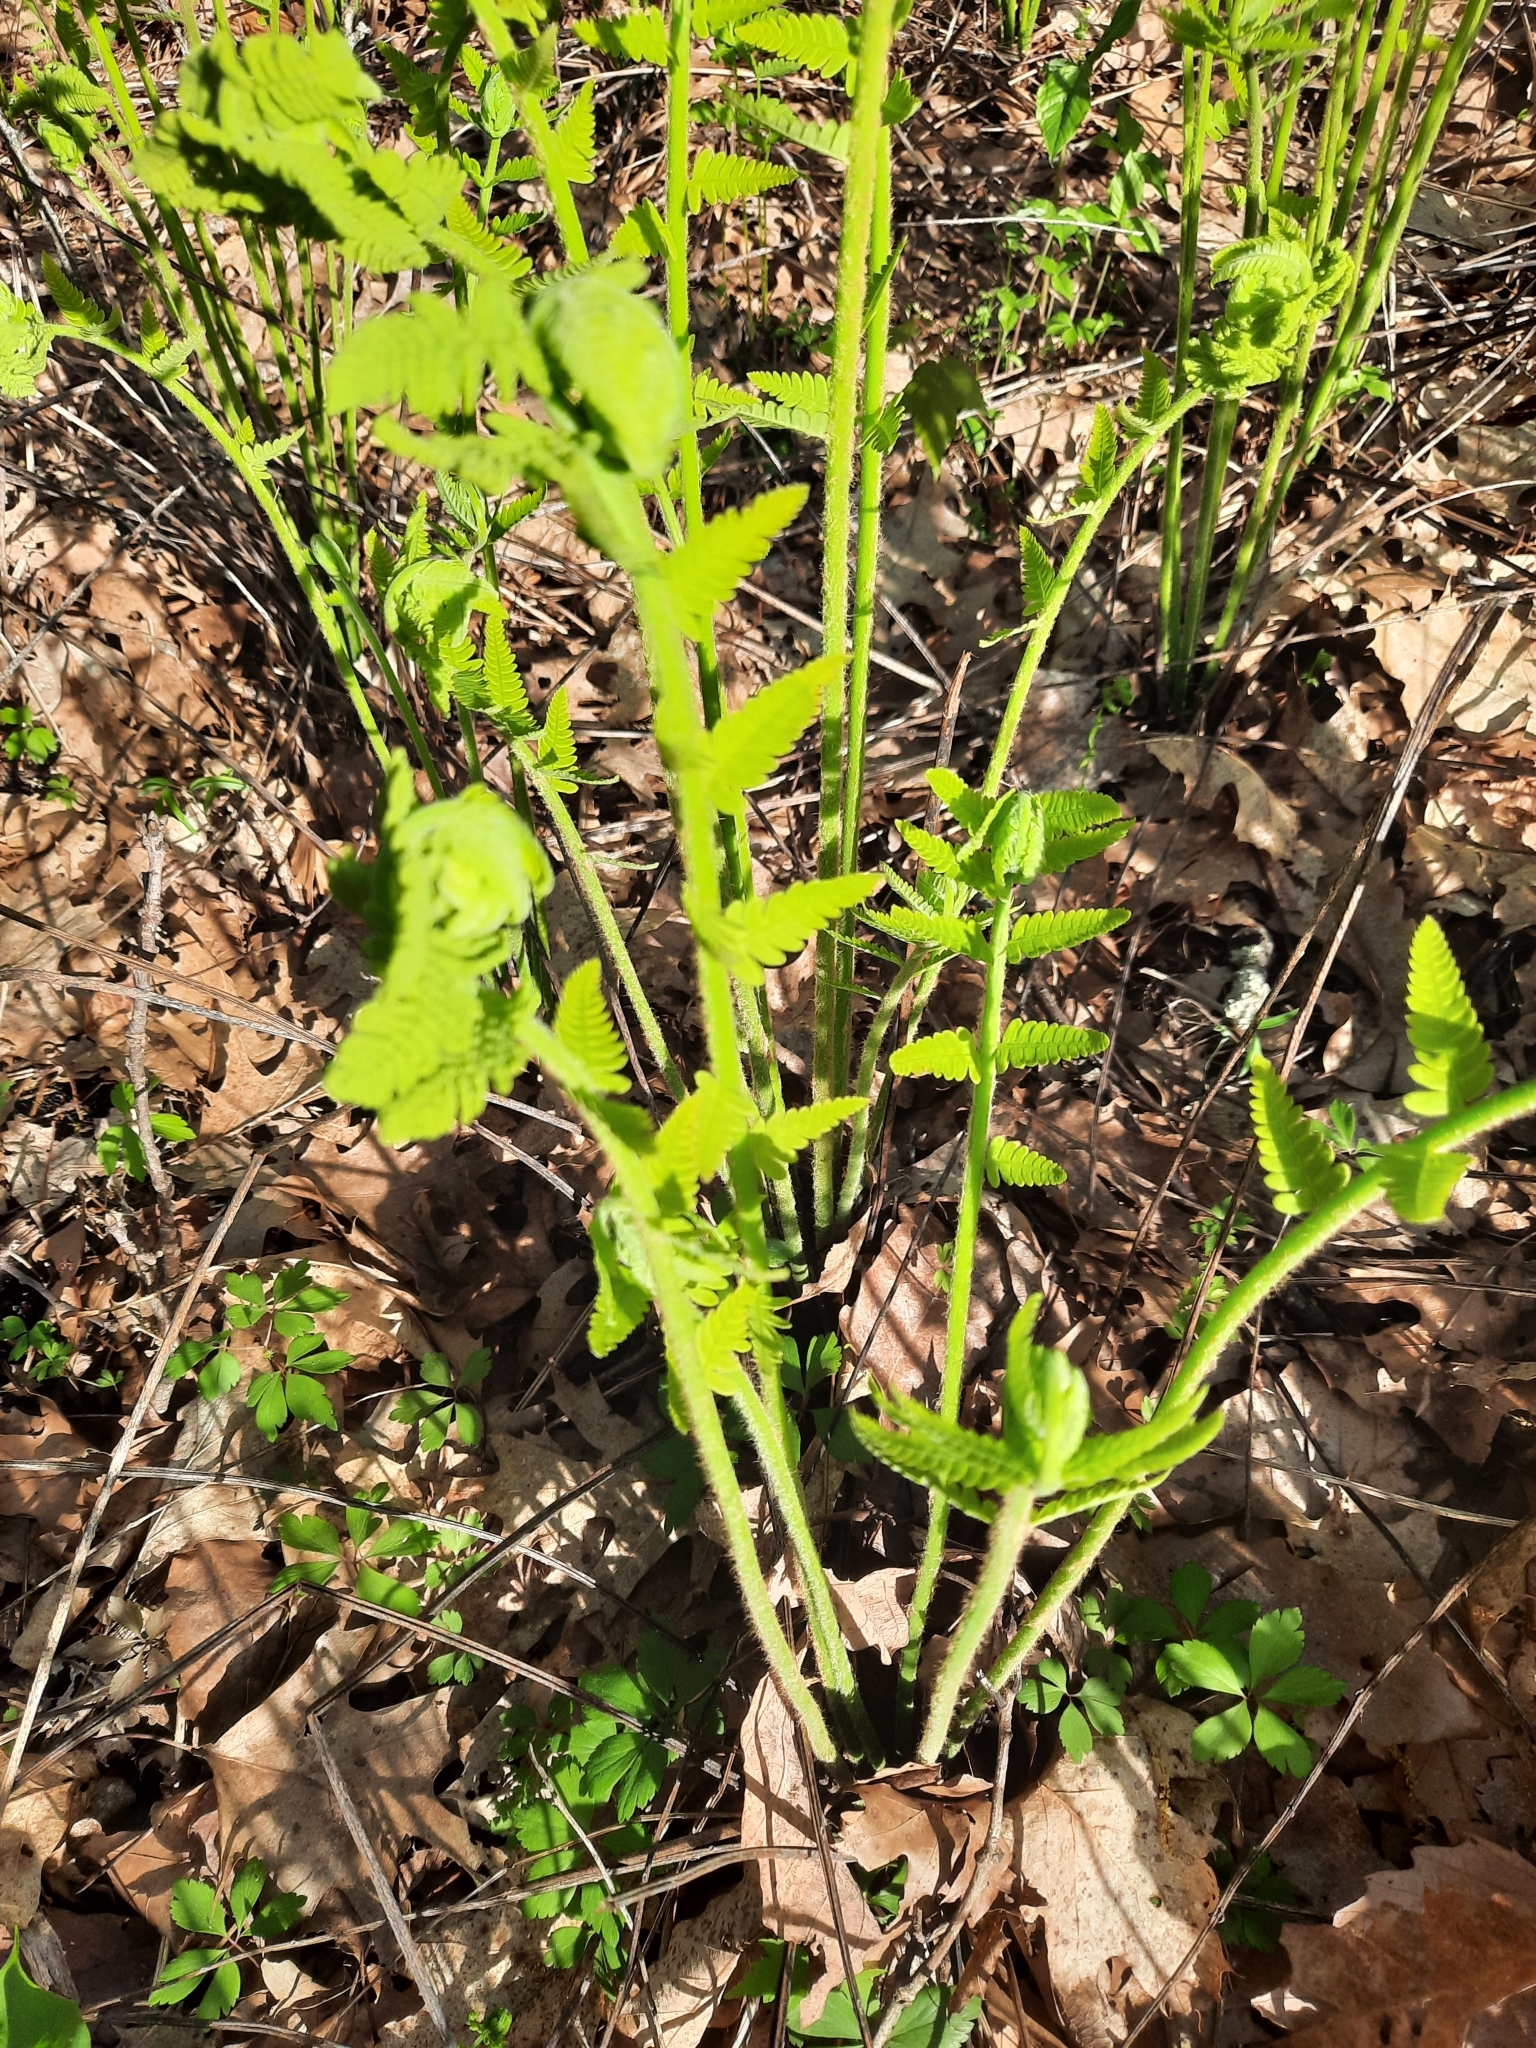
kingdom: Plantae
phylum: Tracheophyta
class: Polypodiopsida
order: Osmundales
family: Osmundaceae
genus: Claytosmunda
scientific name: Claytosmunda claytoniana
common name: Clayton's fern
